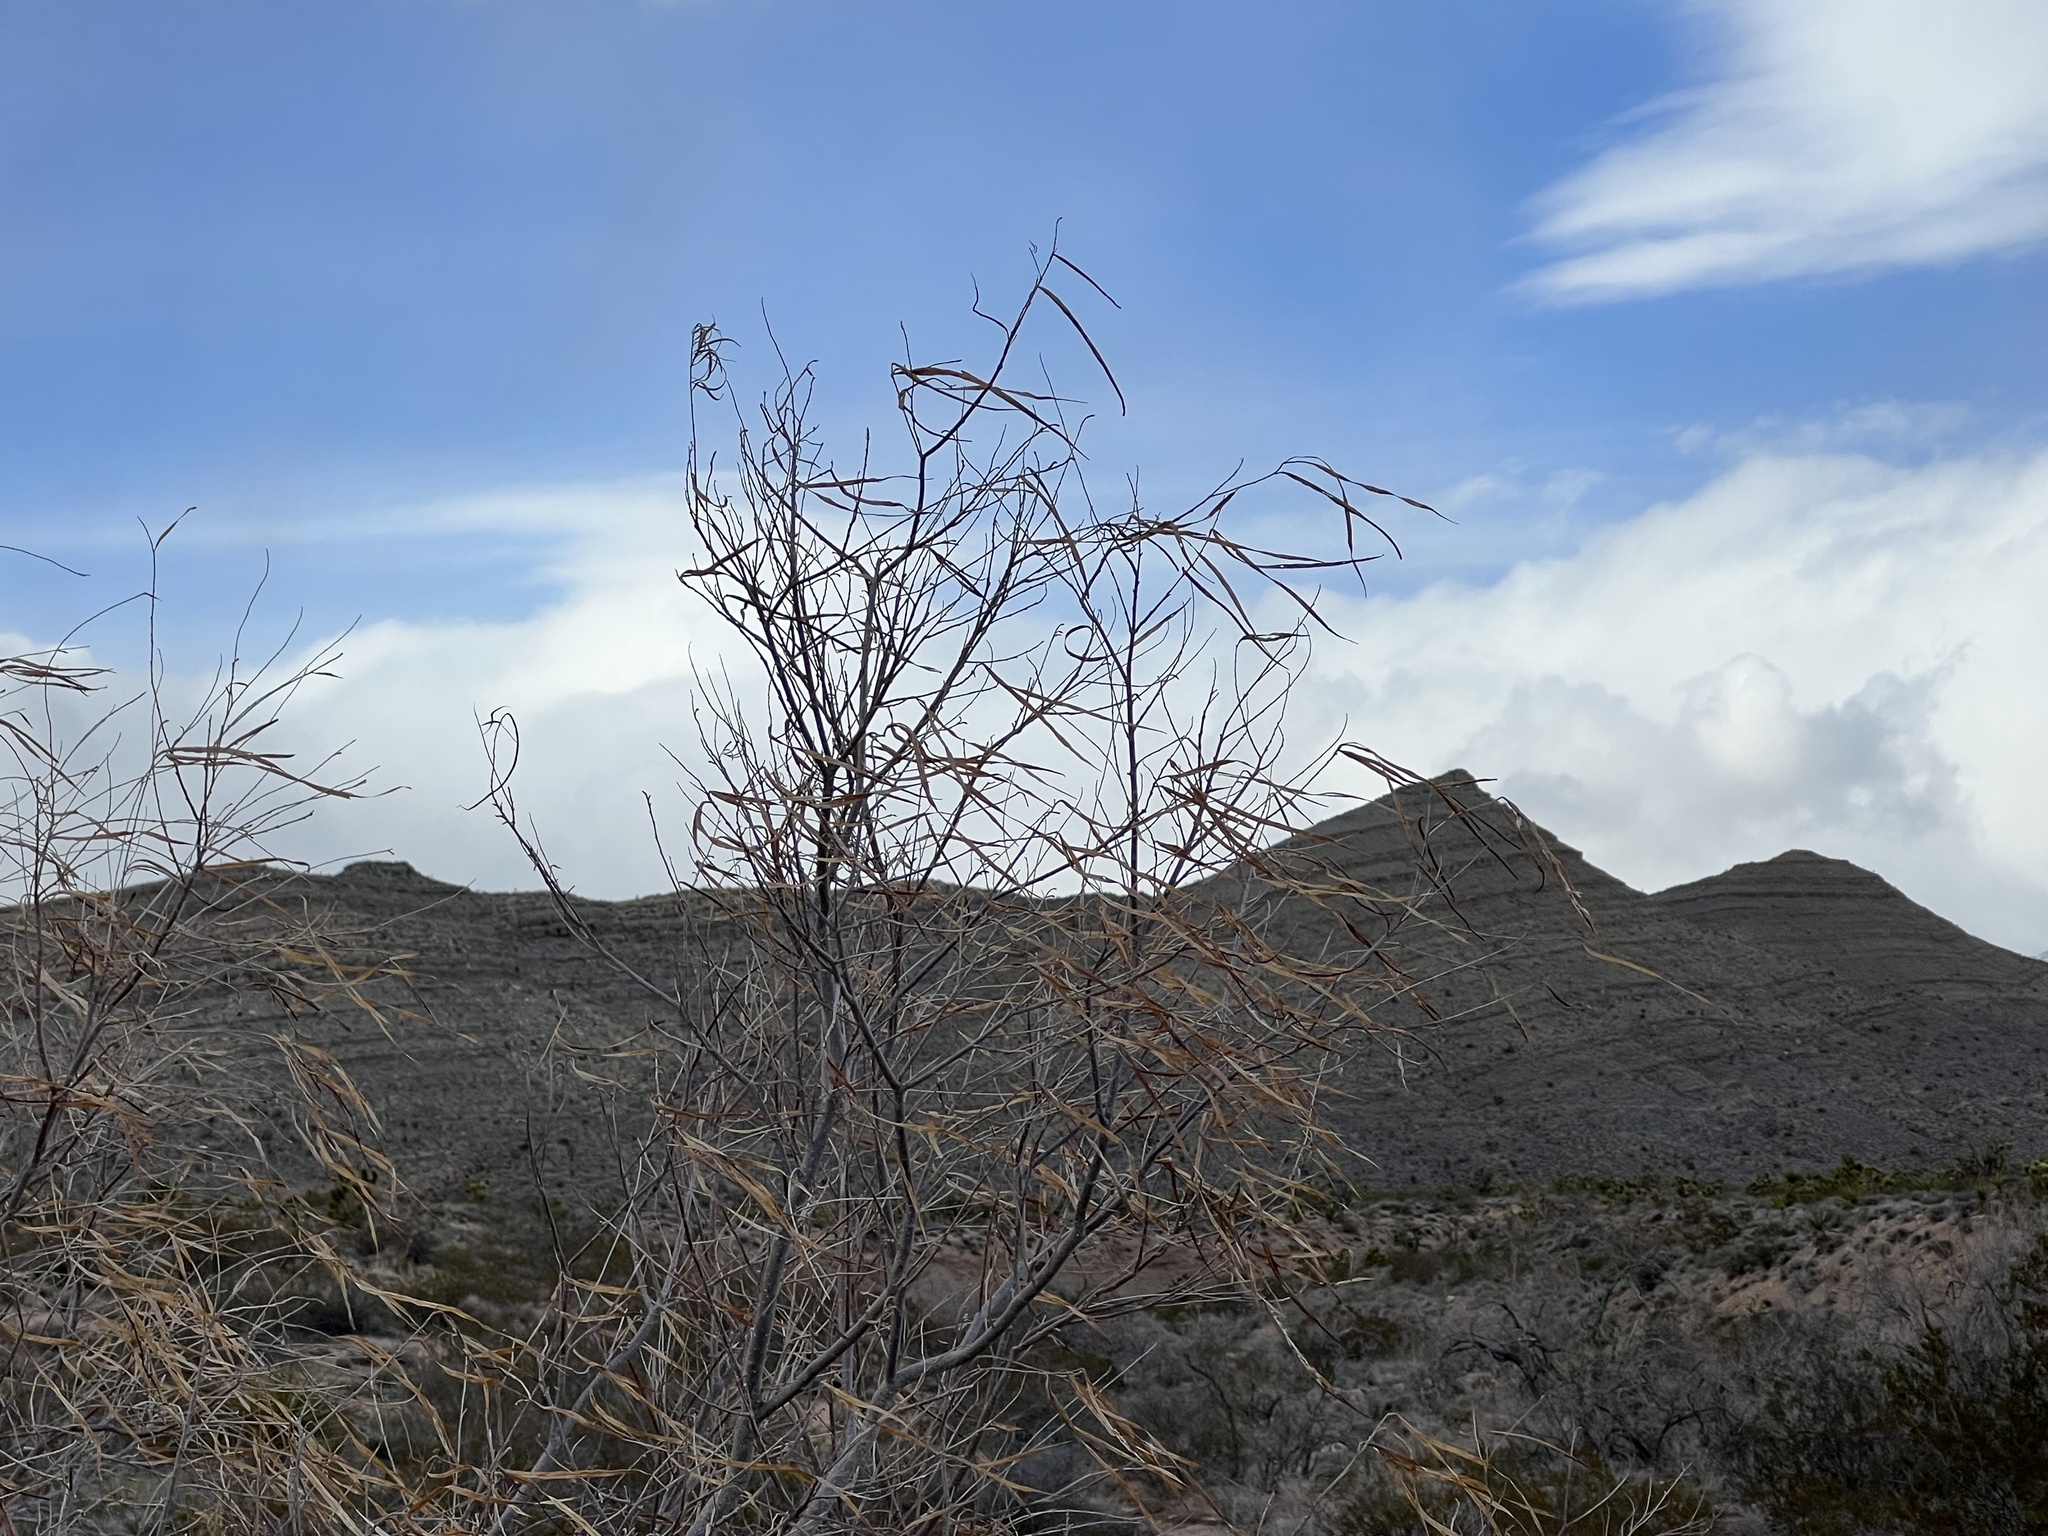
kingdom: Plantae
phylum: Tracheophyta
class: Magnoliopsida
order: Lamiales
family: Bignoniaceae
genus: Chilopsis
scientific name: Chilopsis linearis
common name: Desert-willow
